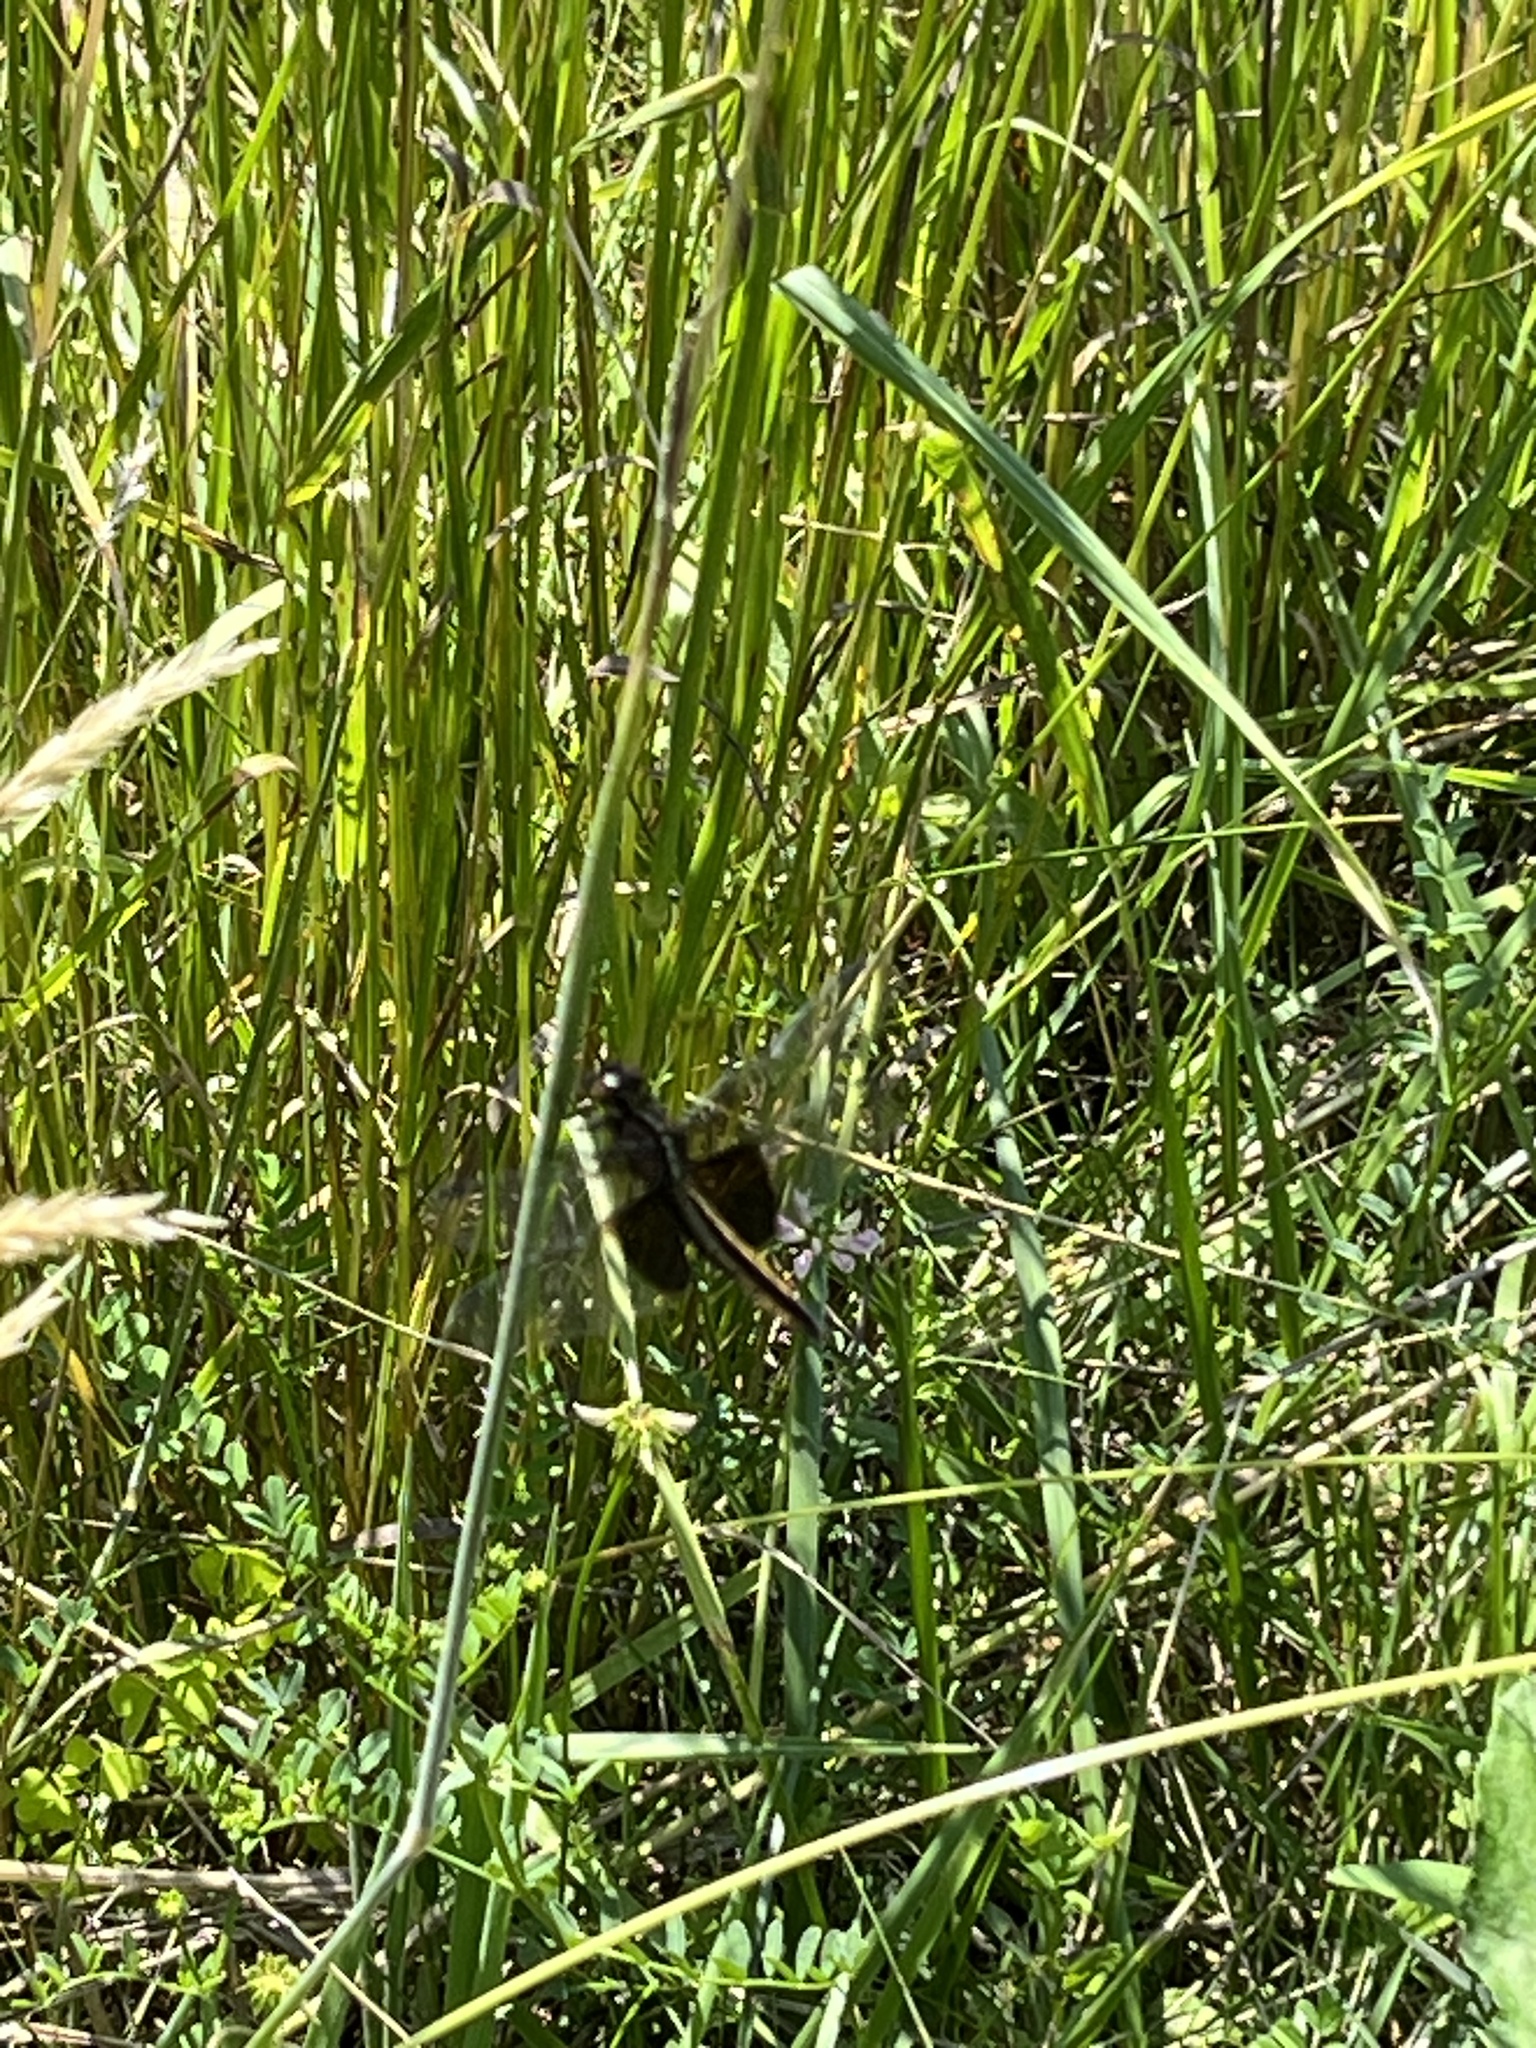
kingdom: Animalia
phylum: Arthropoda
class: Insecta
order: Odonata
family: Libellulidae
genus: Libellula
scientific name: Libellula luctuosa
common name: Widow skimmer
